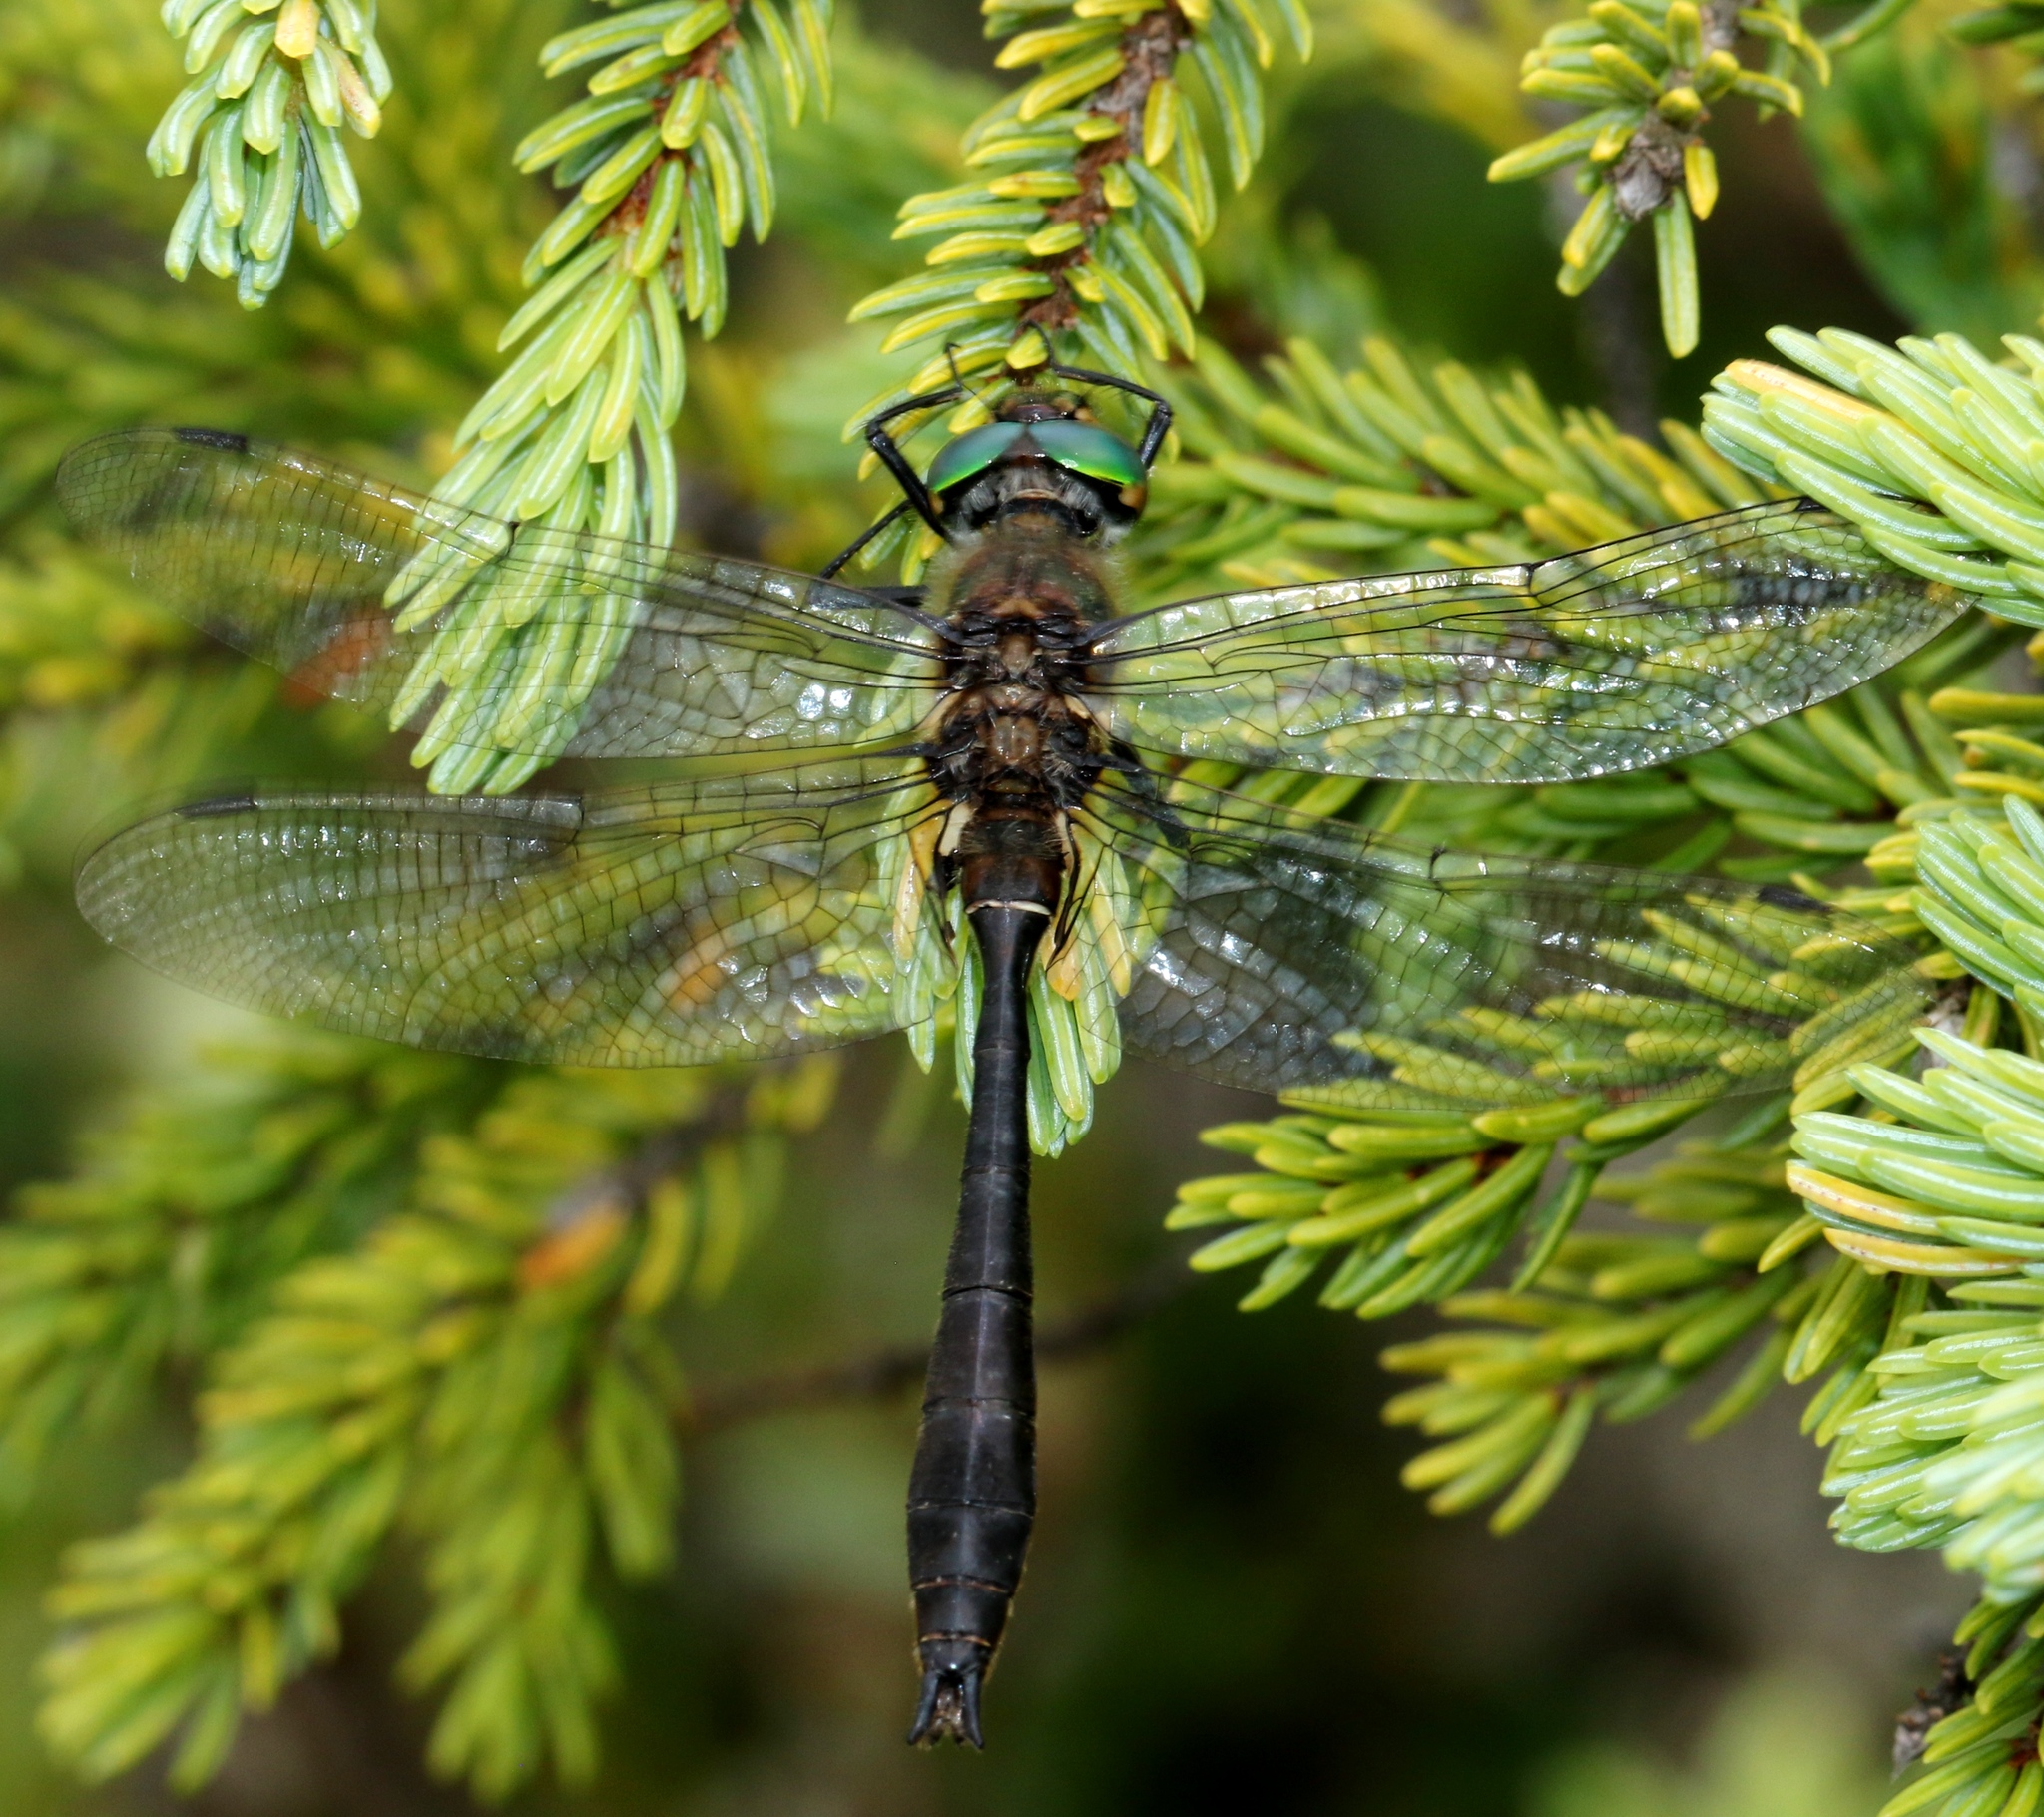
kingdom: Animalia
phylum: Arthropoda
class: Insecta
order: Odonata
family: Corduliidae
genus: Cordulia
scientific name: Cordulia shurtleffii
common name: American emerald
